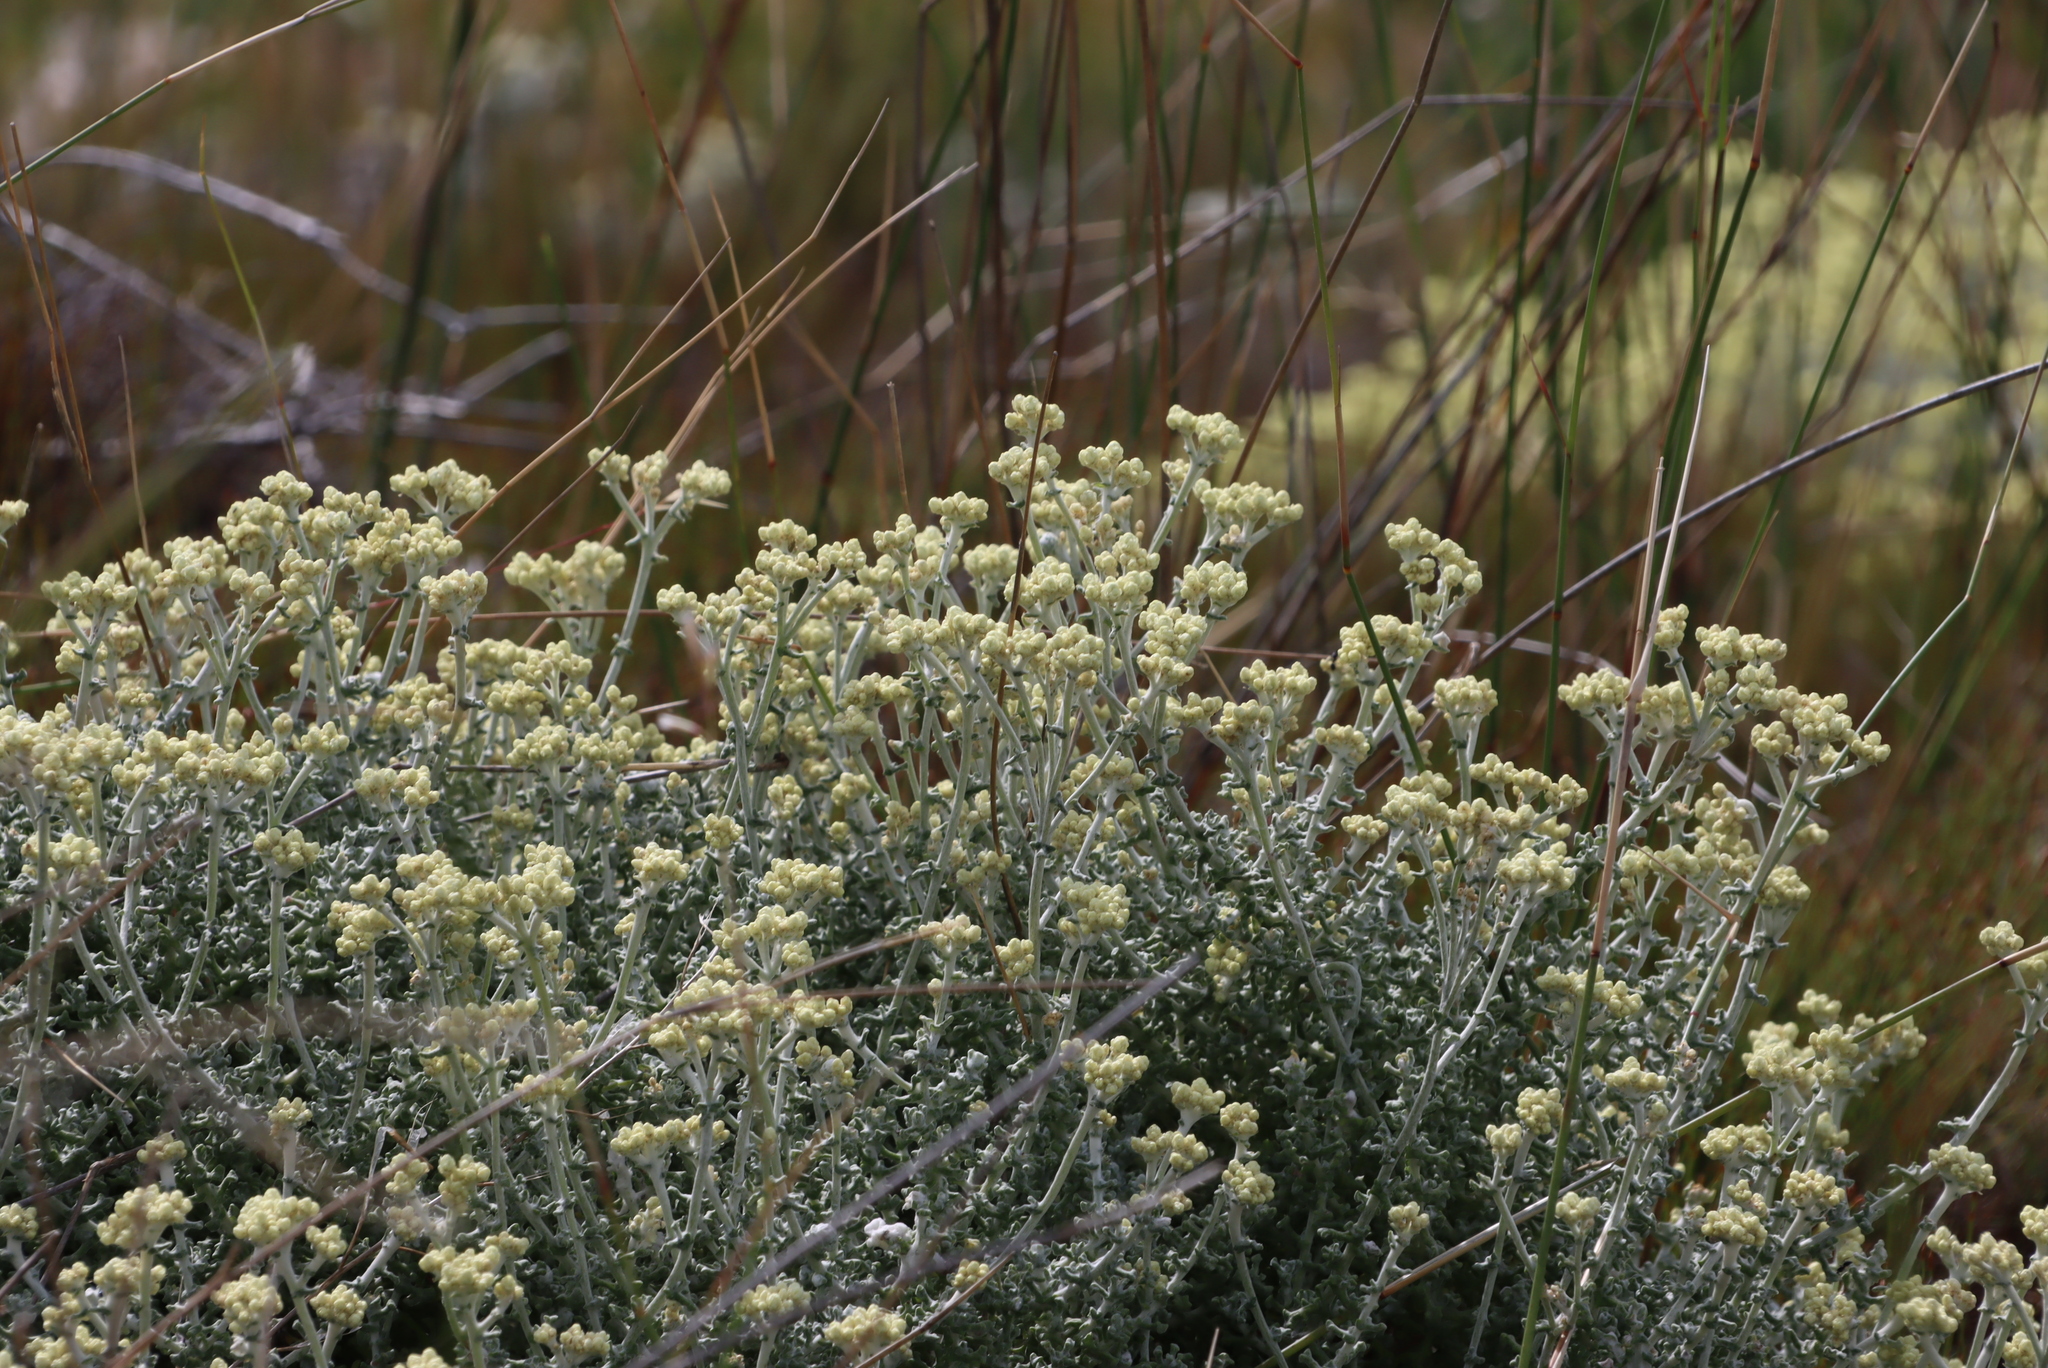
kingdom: Plantae
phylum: Tracheophyta
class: Magnoliopsida
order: Asterales
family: Asteraceae
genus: Helichrysum
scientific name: Helichrysum patulum
